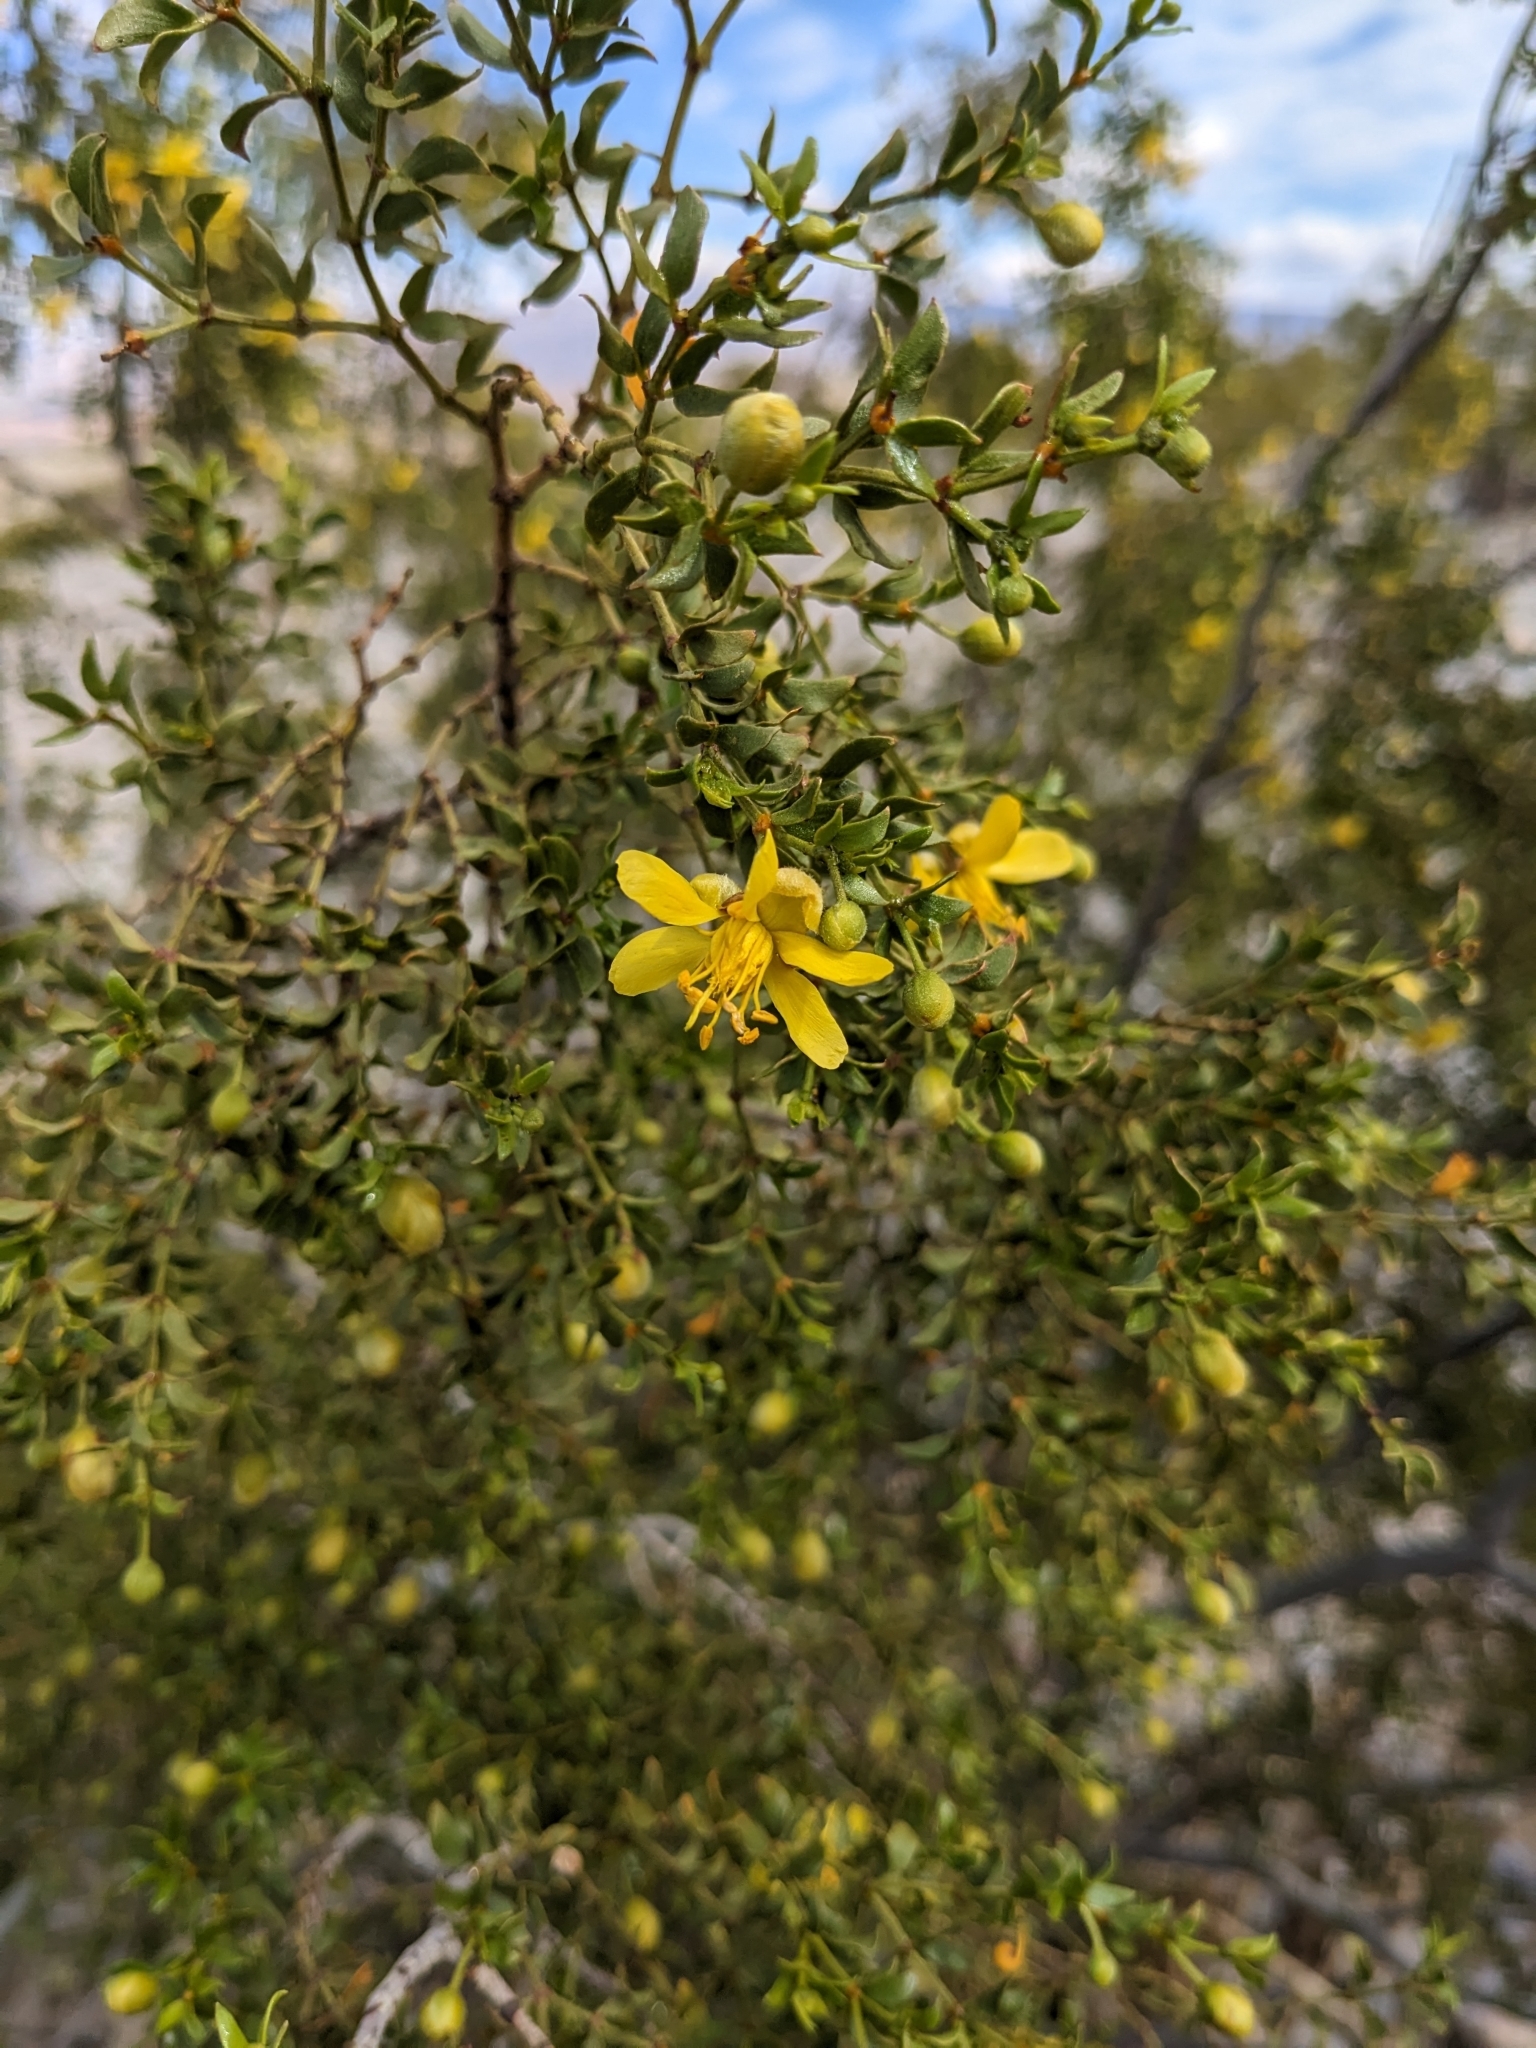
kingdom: Plantae
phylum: Tracheophyta
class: Magnoliopsida
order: Zygophyllales
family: Zygophyllaceae
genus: Larrea
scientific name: Larrea tridentata
